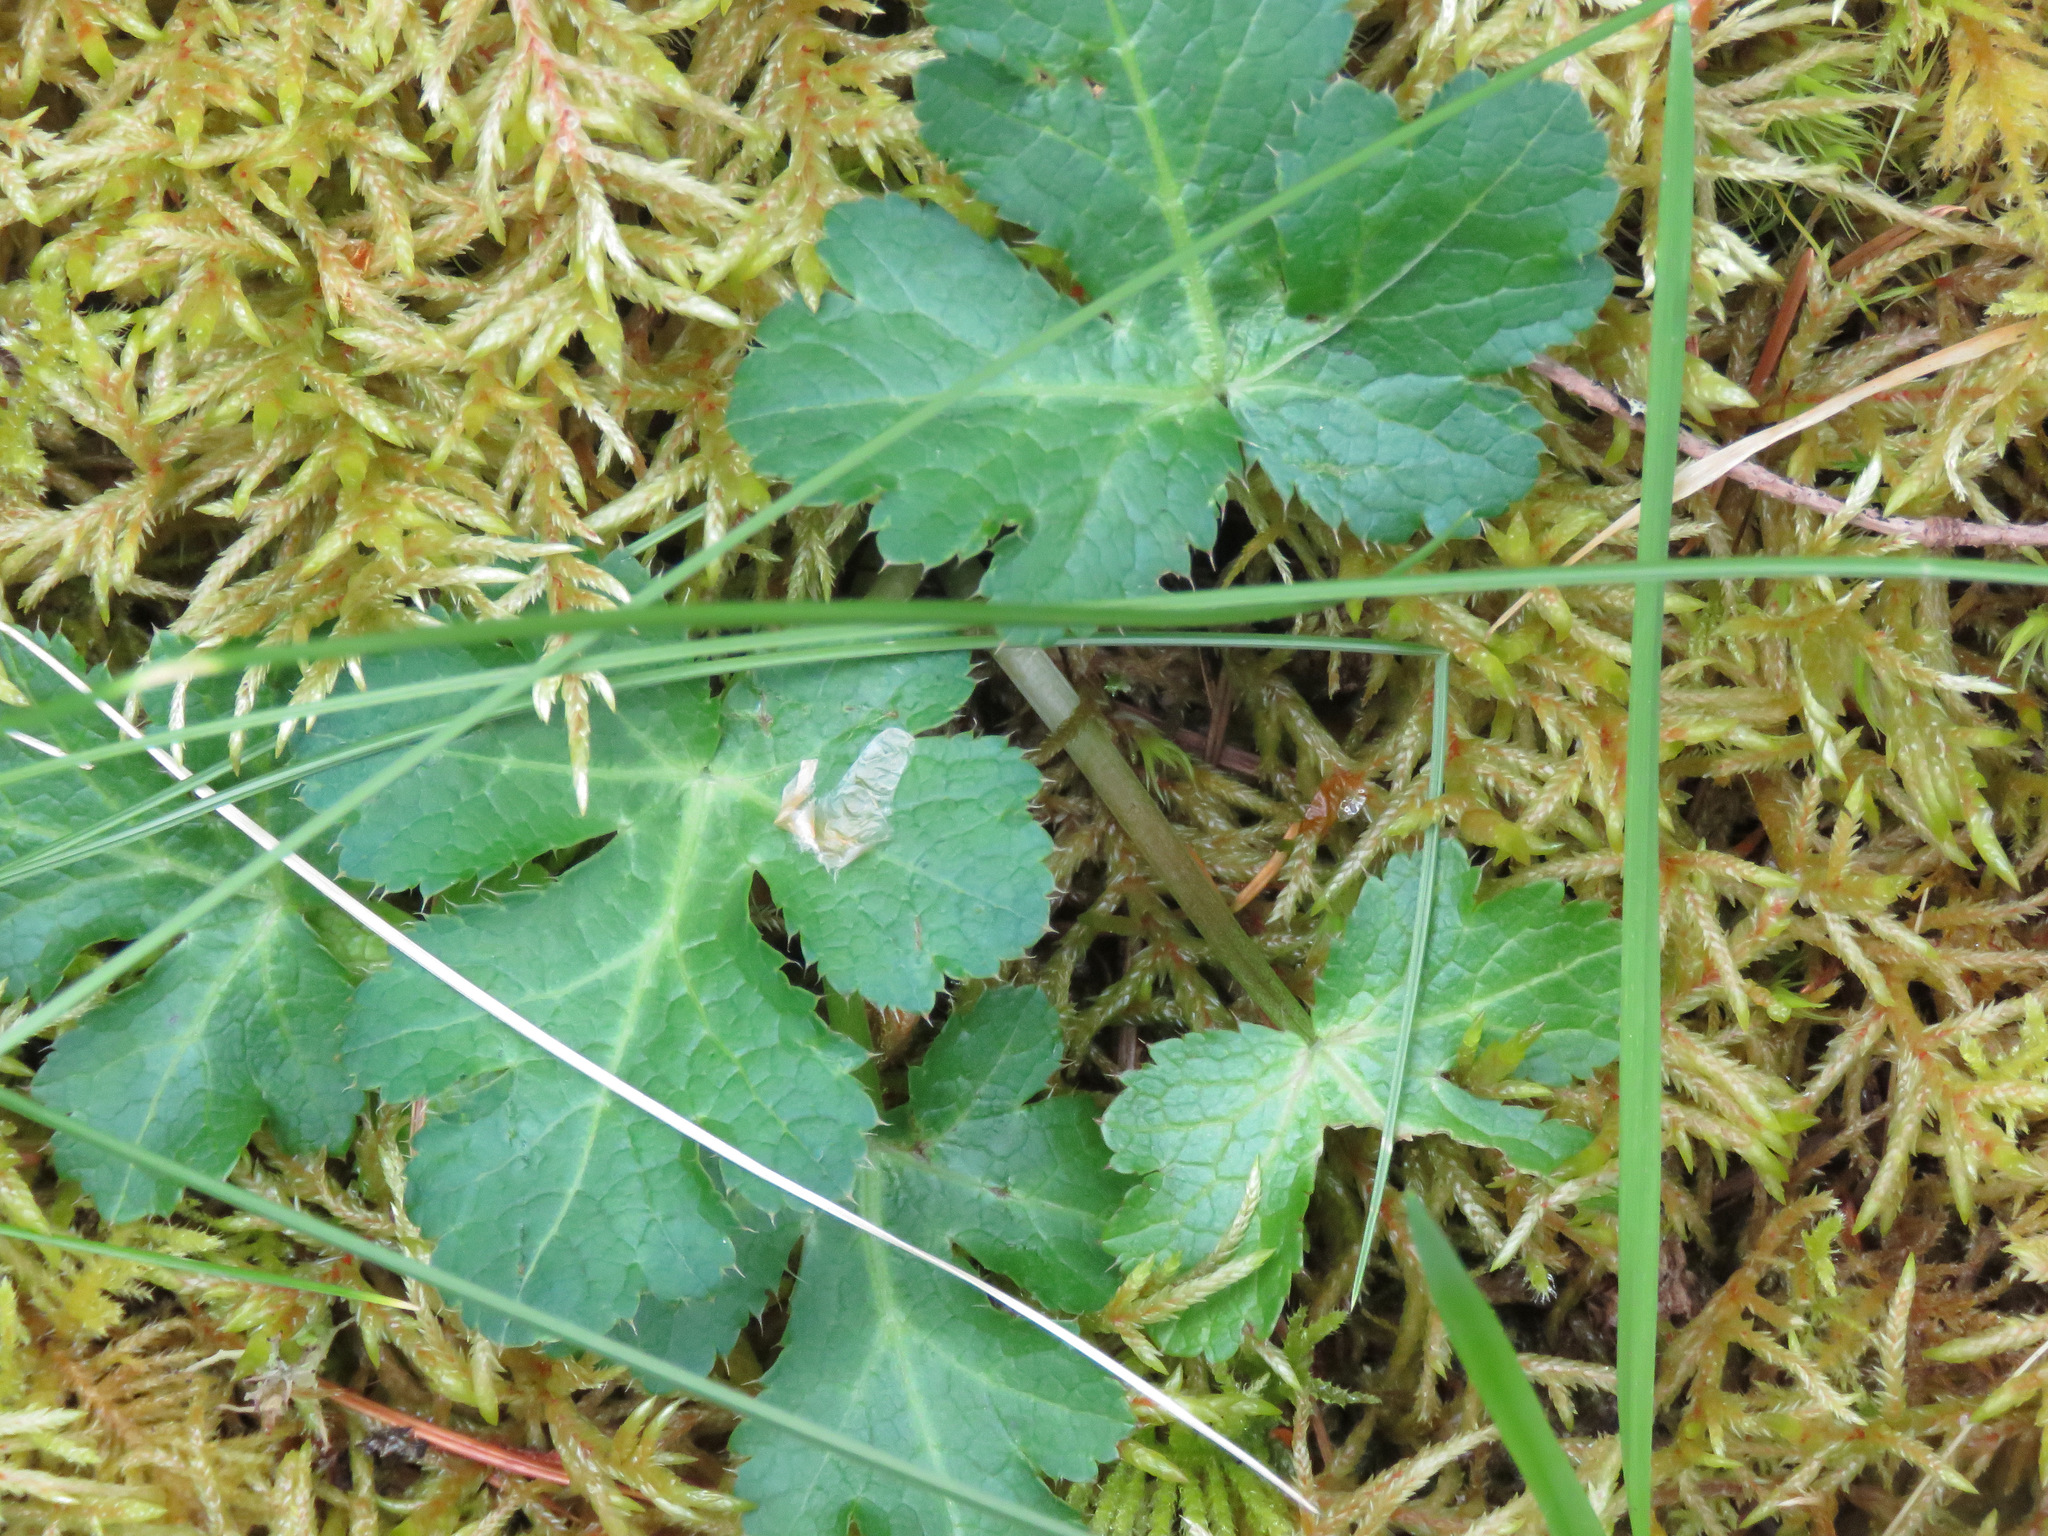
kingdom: Plantae
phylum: Tracheophyta
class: Magnoliopsida
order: Apiales
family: Apiaceae
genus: Sanicula
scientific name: Sanicula crassicaulis
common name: Western snakeroot
